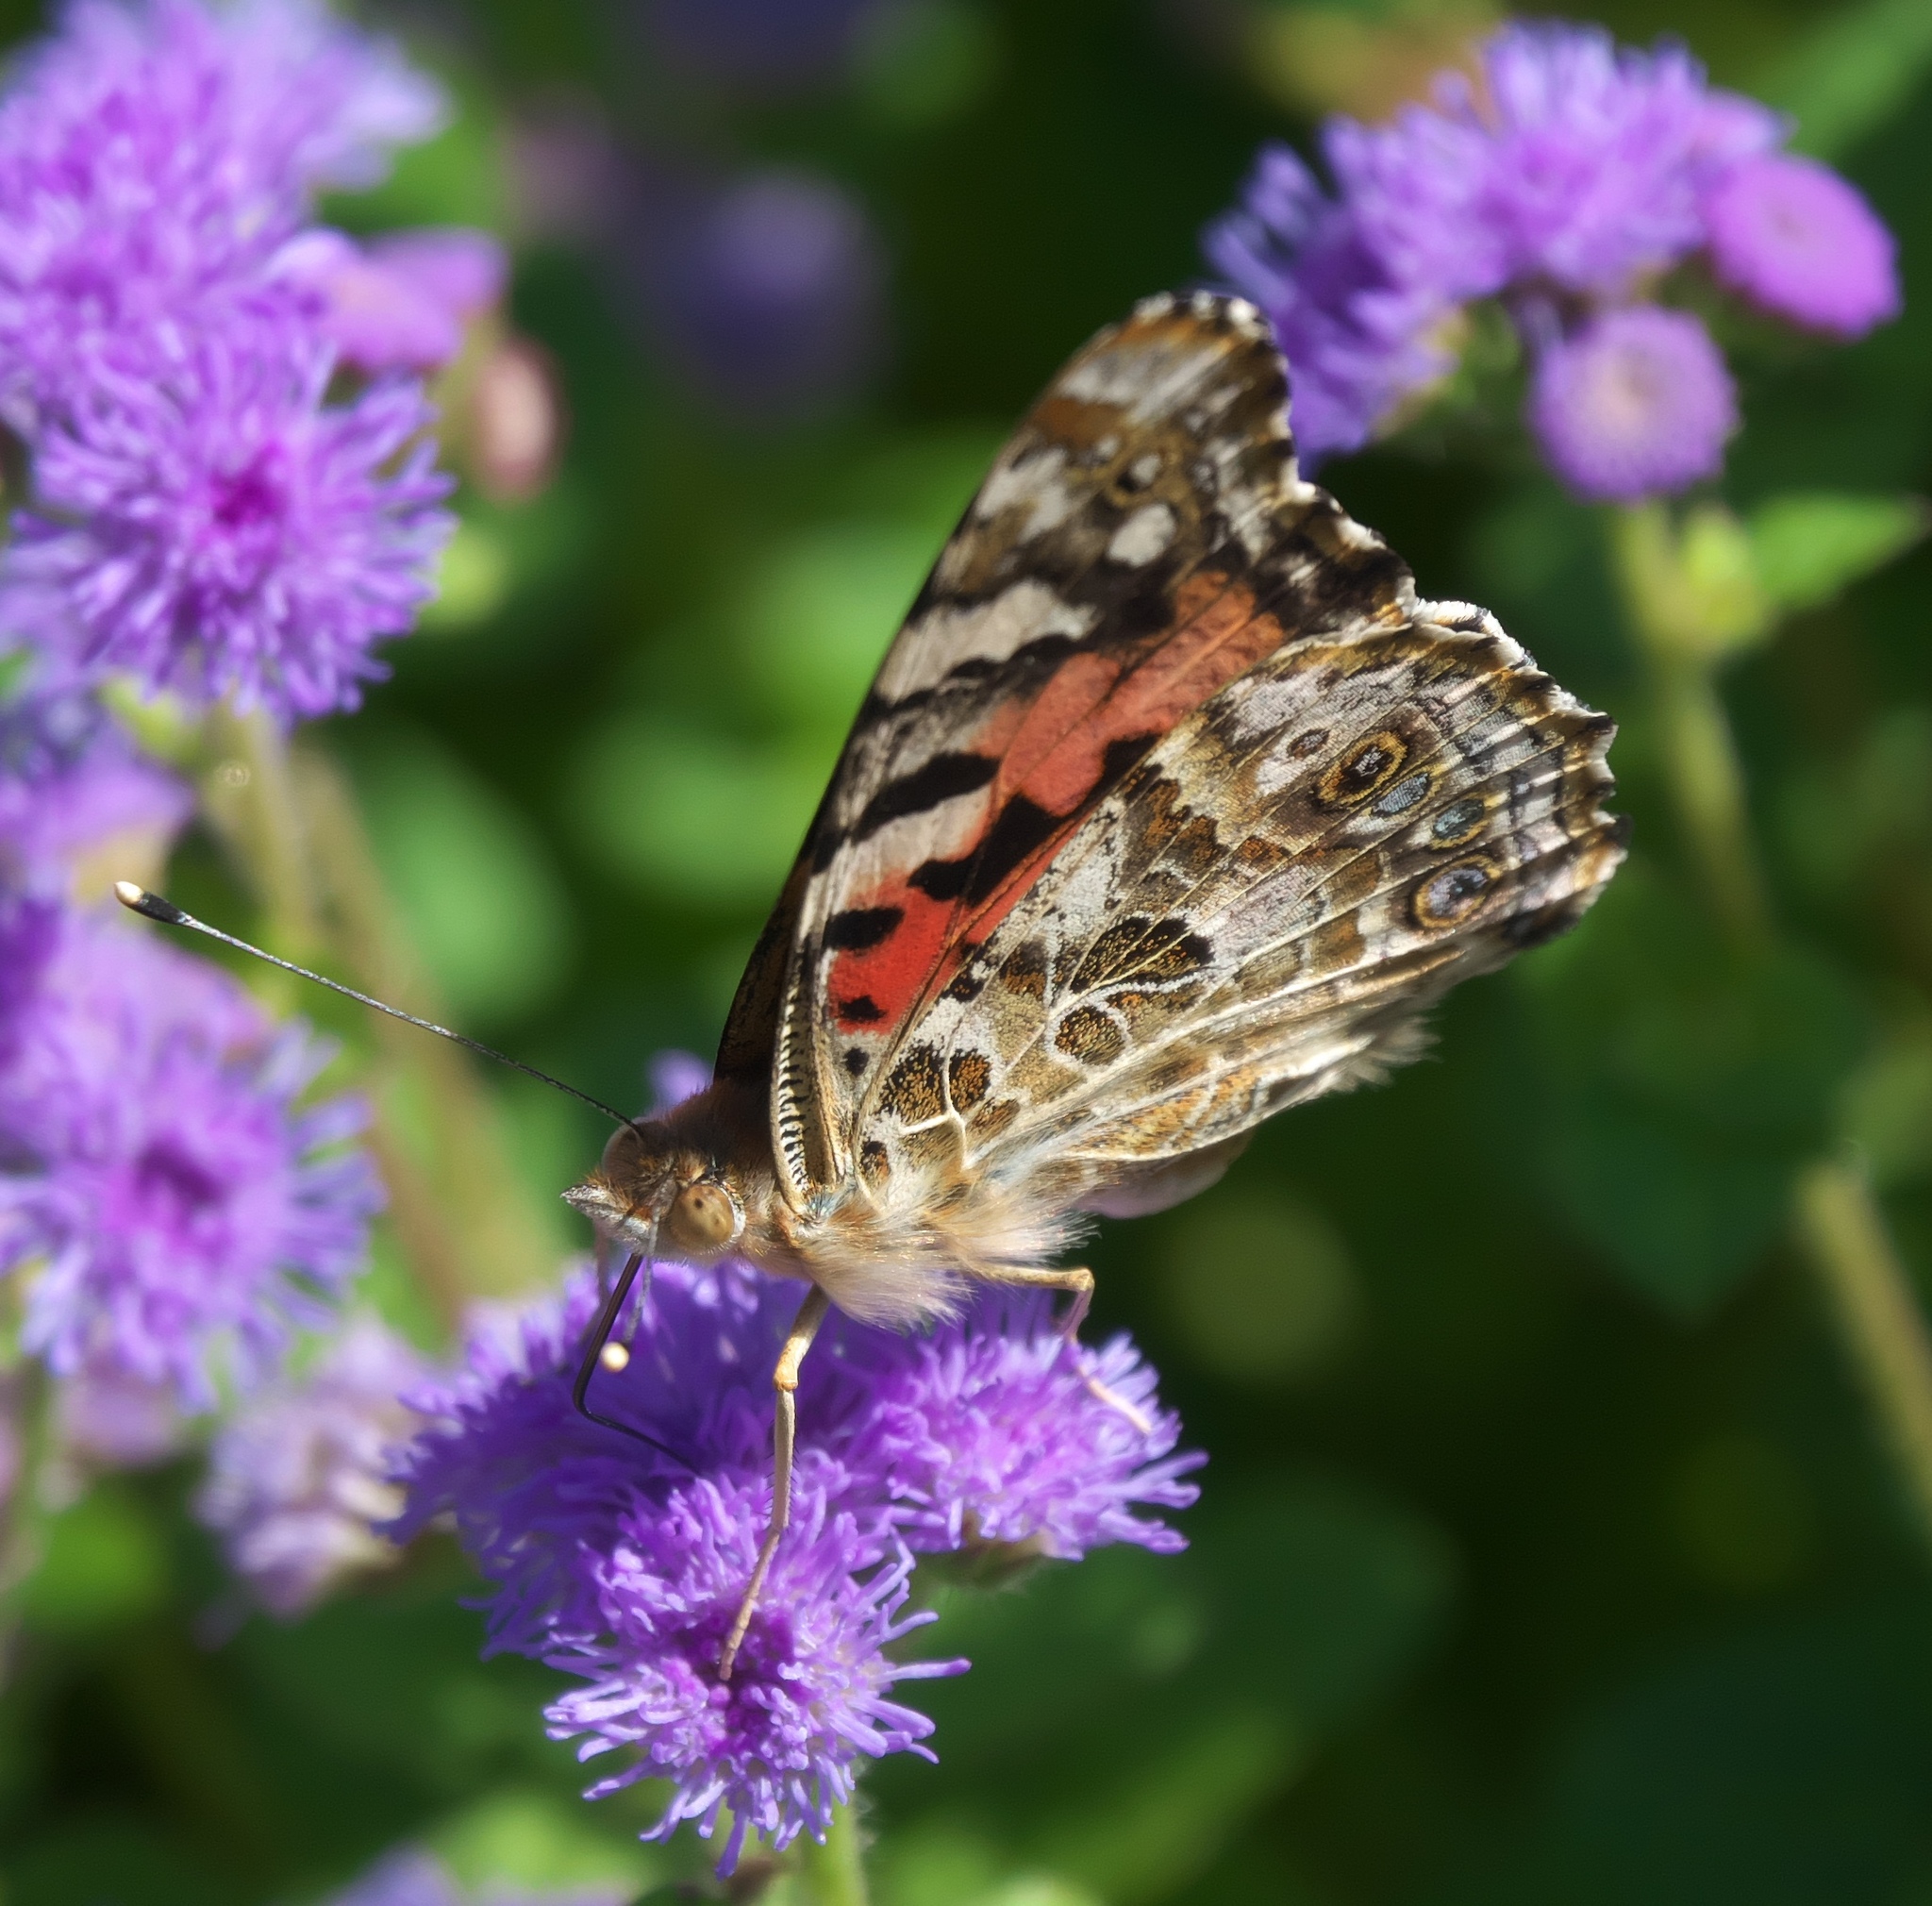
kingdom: Animalia
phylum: Arthropoda
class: Insecta
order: Lepidoptera
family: Nymphalidae
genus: Vanessa
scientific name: Vanessa cardui
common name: Painted lady
